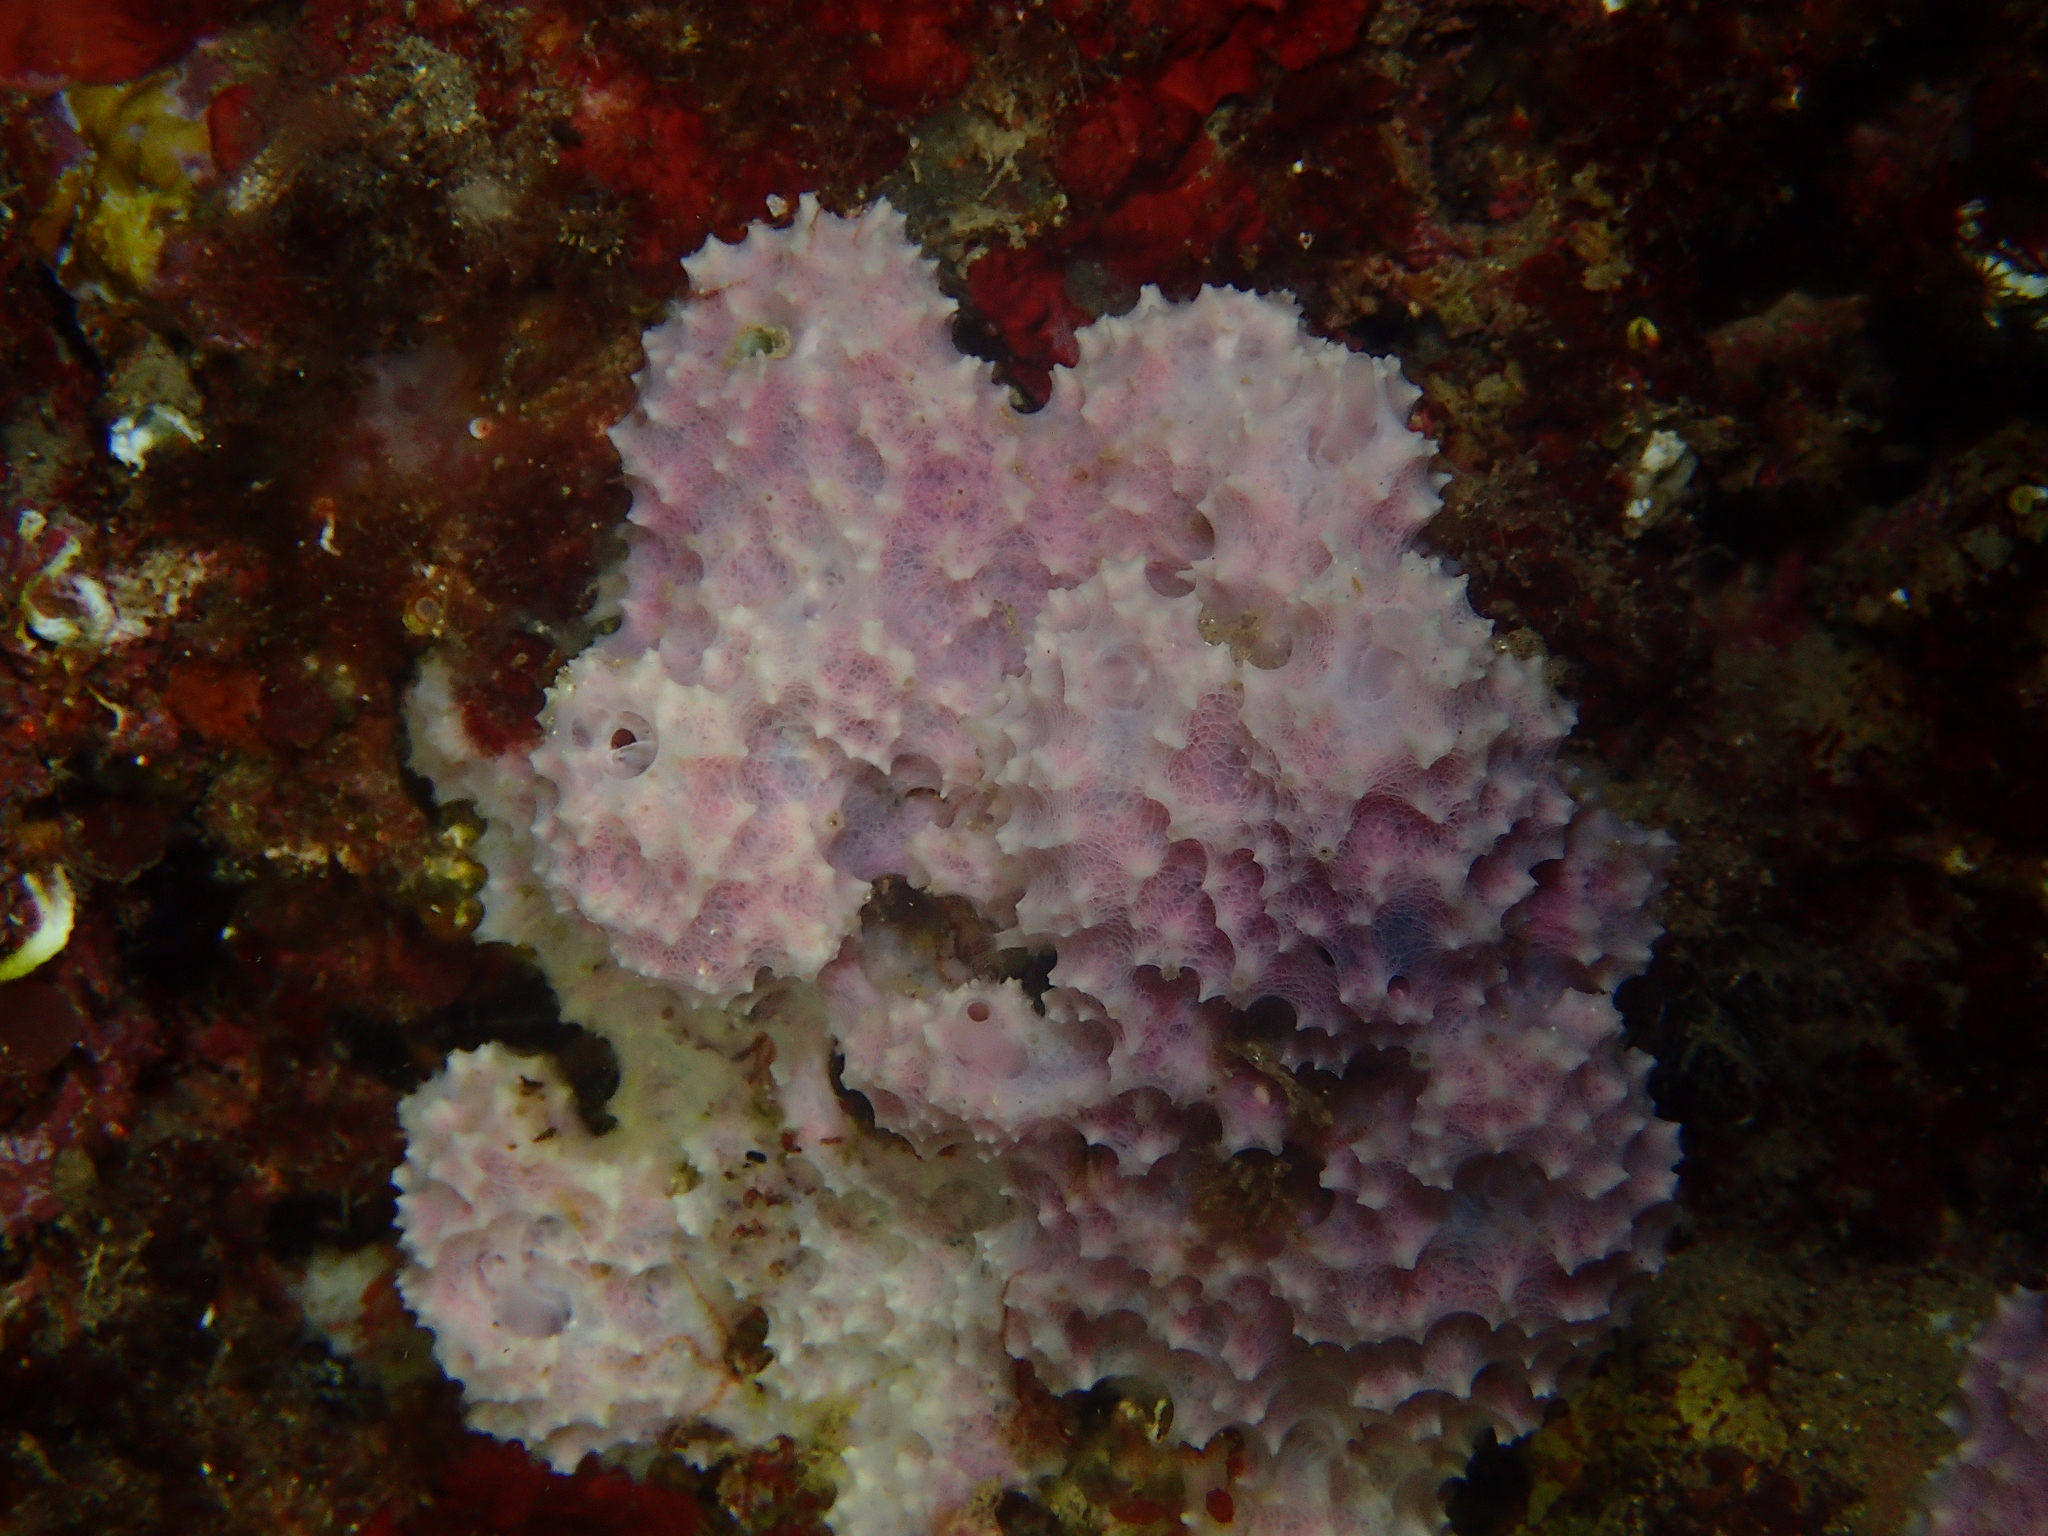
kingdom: Animalia
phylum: Porifera
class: Demospongiae
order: Dictyoceratida
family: Dysideidae
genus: Dysidea
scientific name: Dysidea avara
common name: Pink sponge
